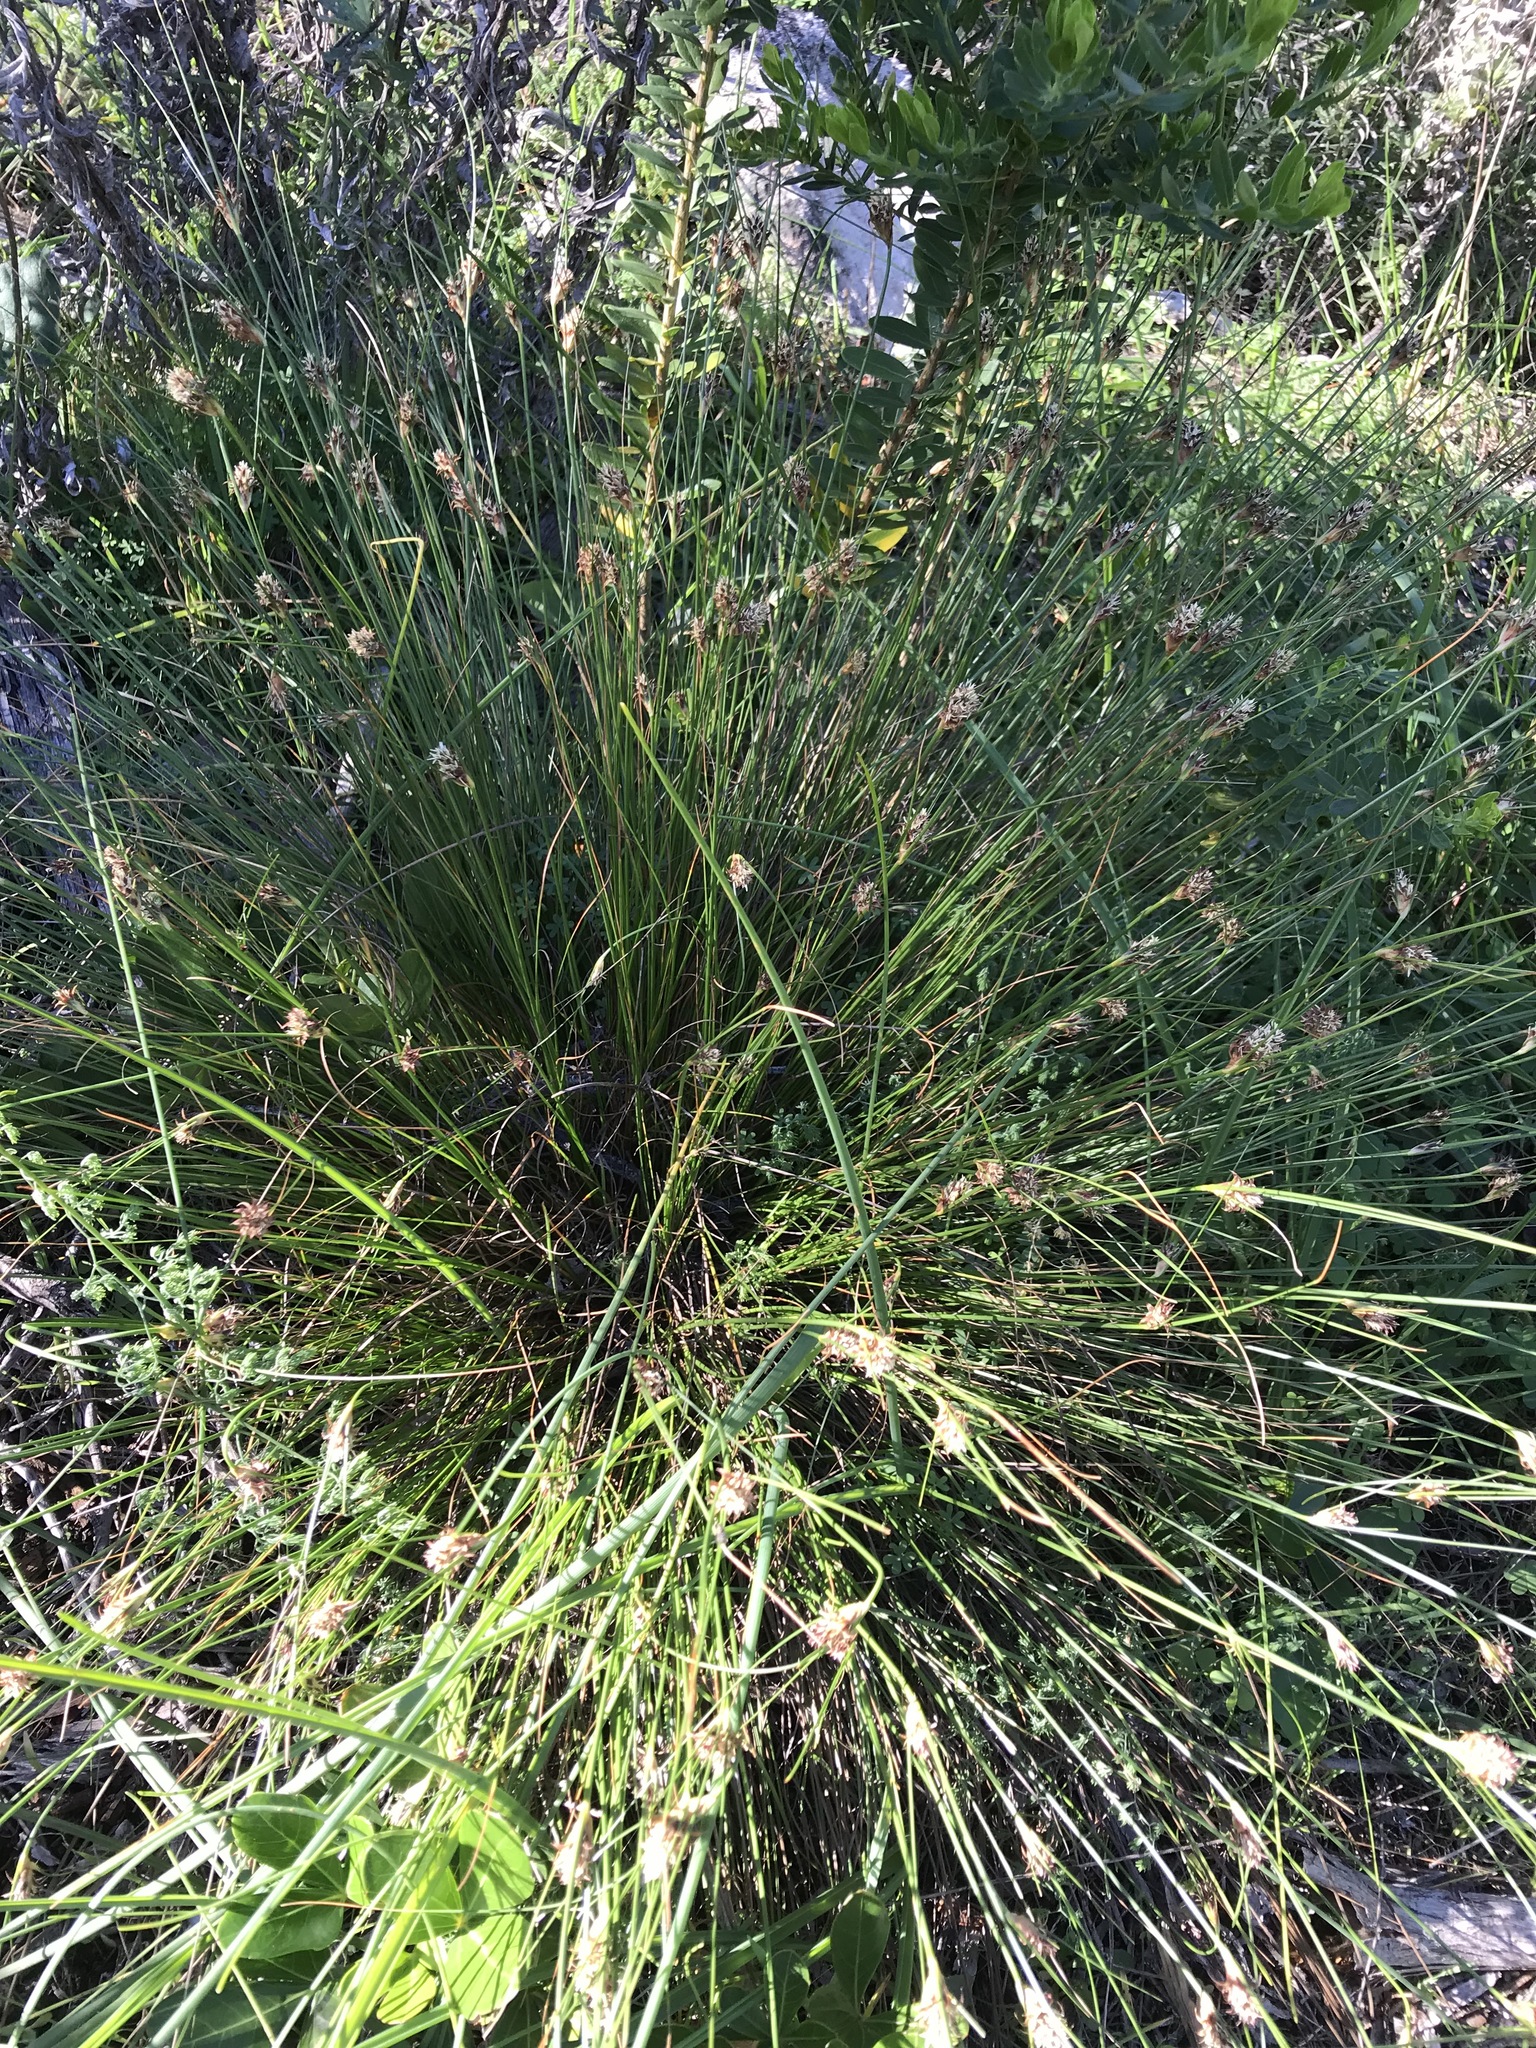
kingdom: Plantae
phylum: Tracheophyta
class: Liliopsida
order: Poales
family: Cyperaceae
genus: Ficinia
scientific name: Ficinia nigrescens
